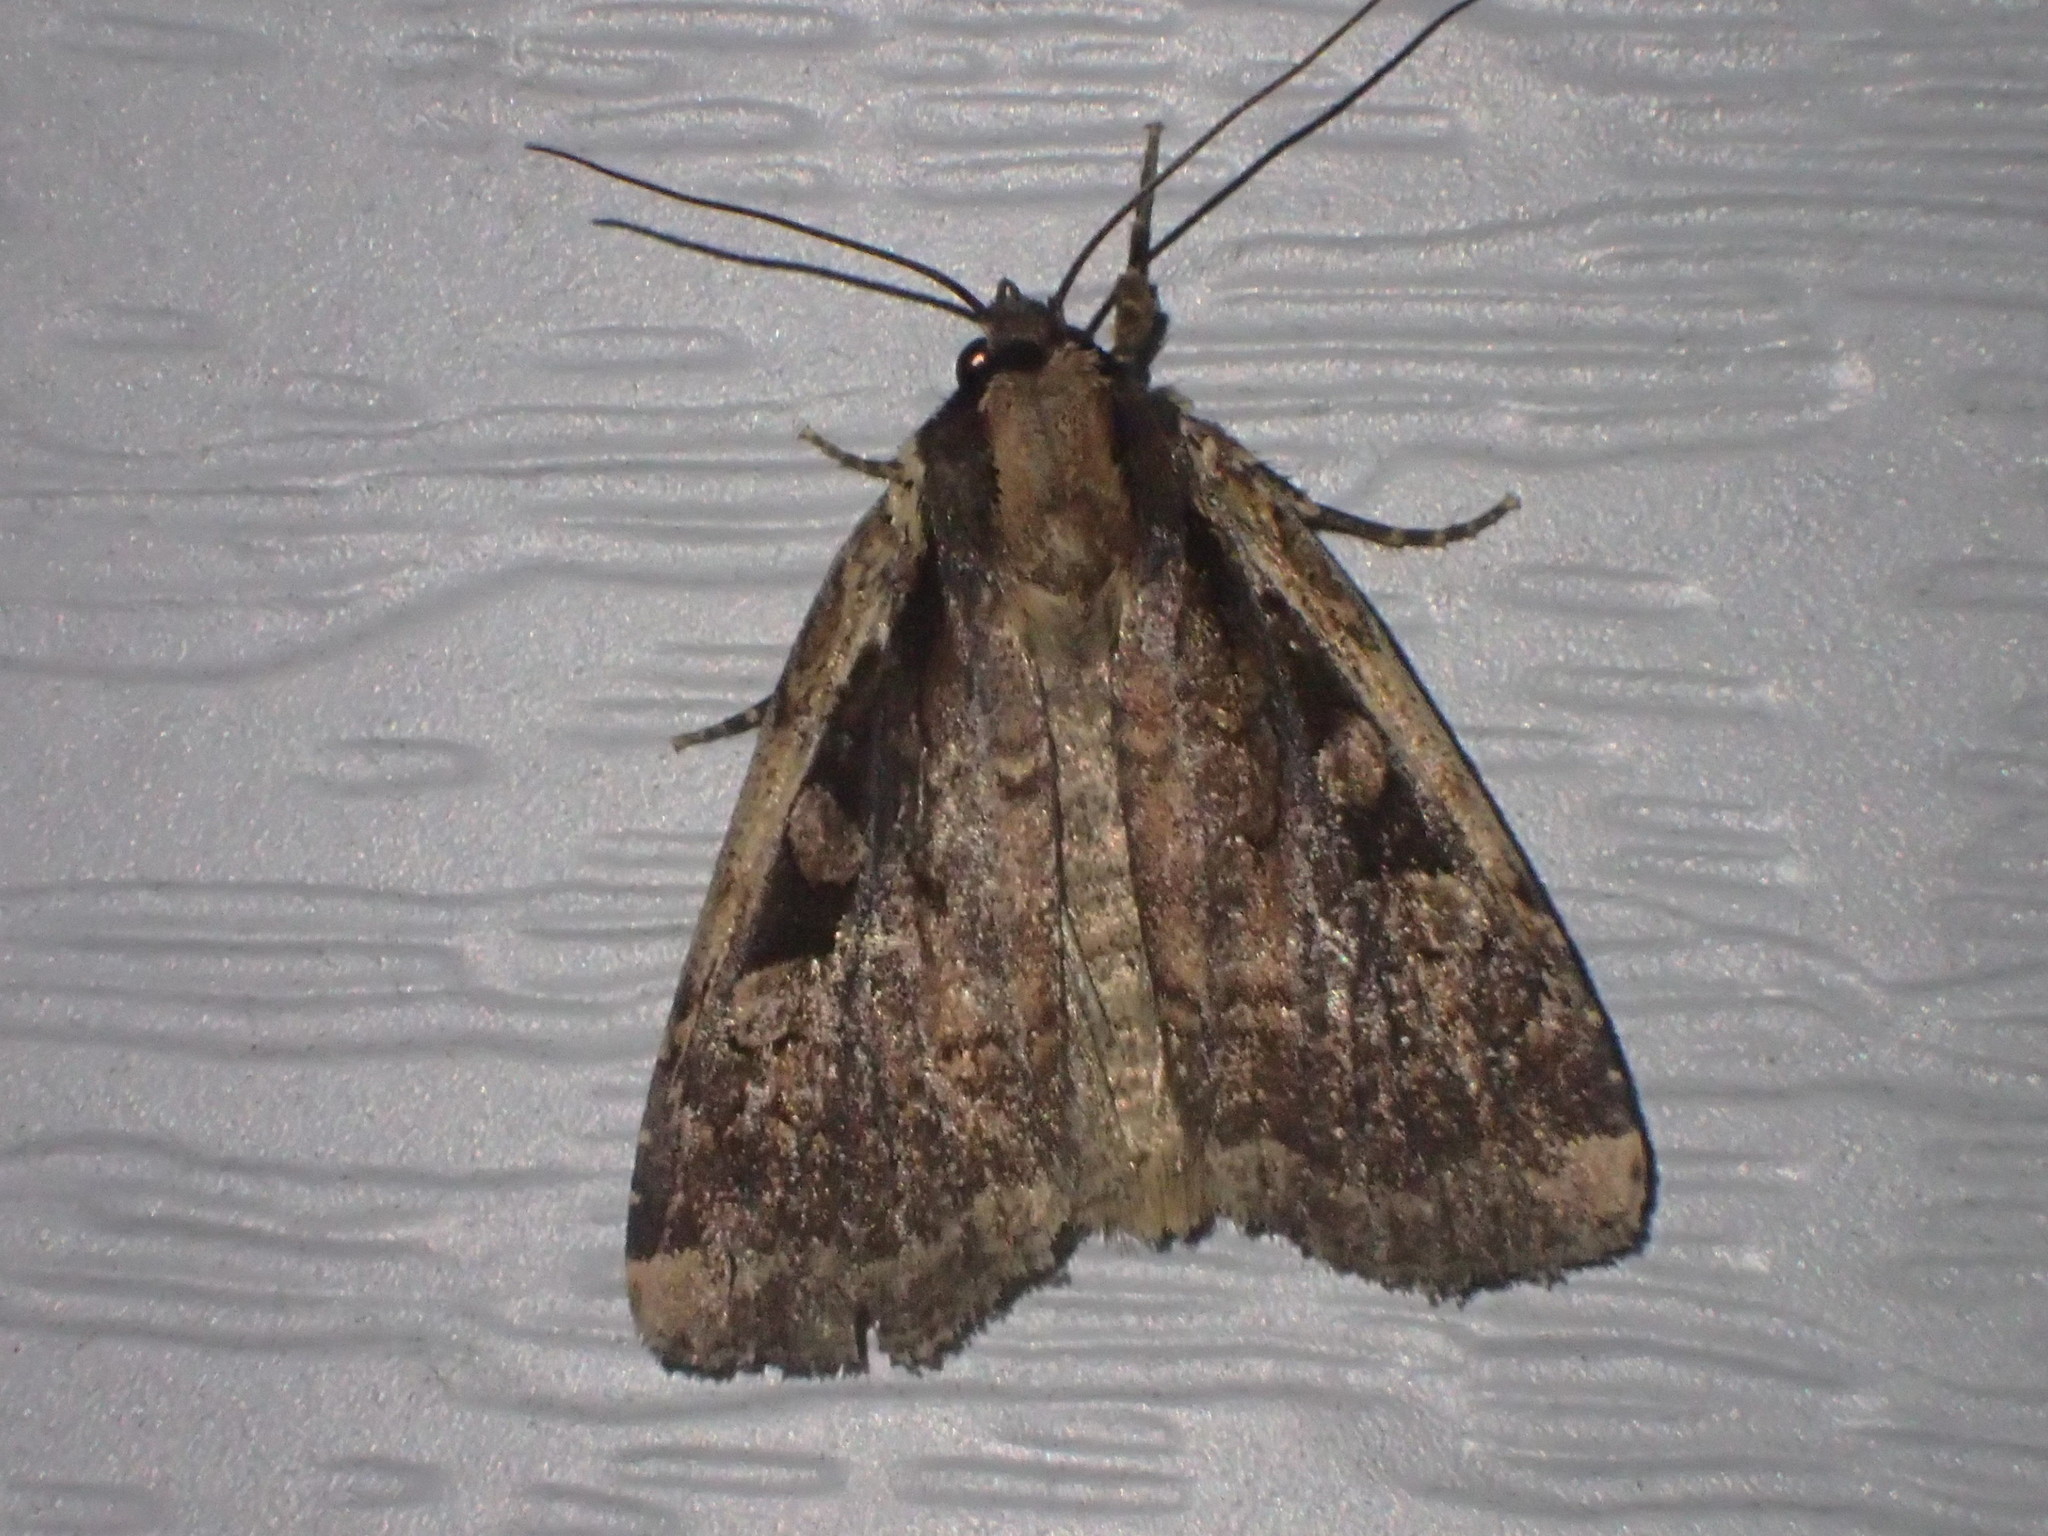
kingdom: Animalia
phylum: Arthropoda
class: Insecta
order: Lepidoptera
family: Noctuidae
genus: Eueretagrotis
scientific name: Eueretagrotis perattentus
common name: Two-spot dart moth
